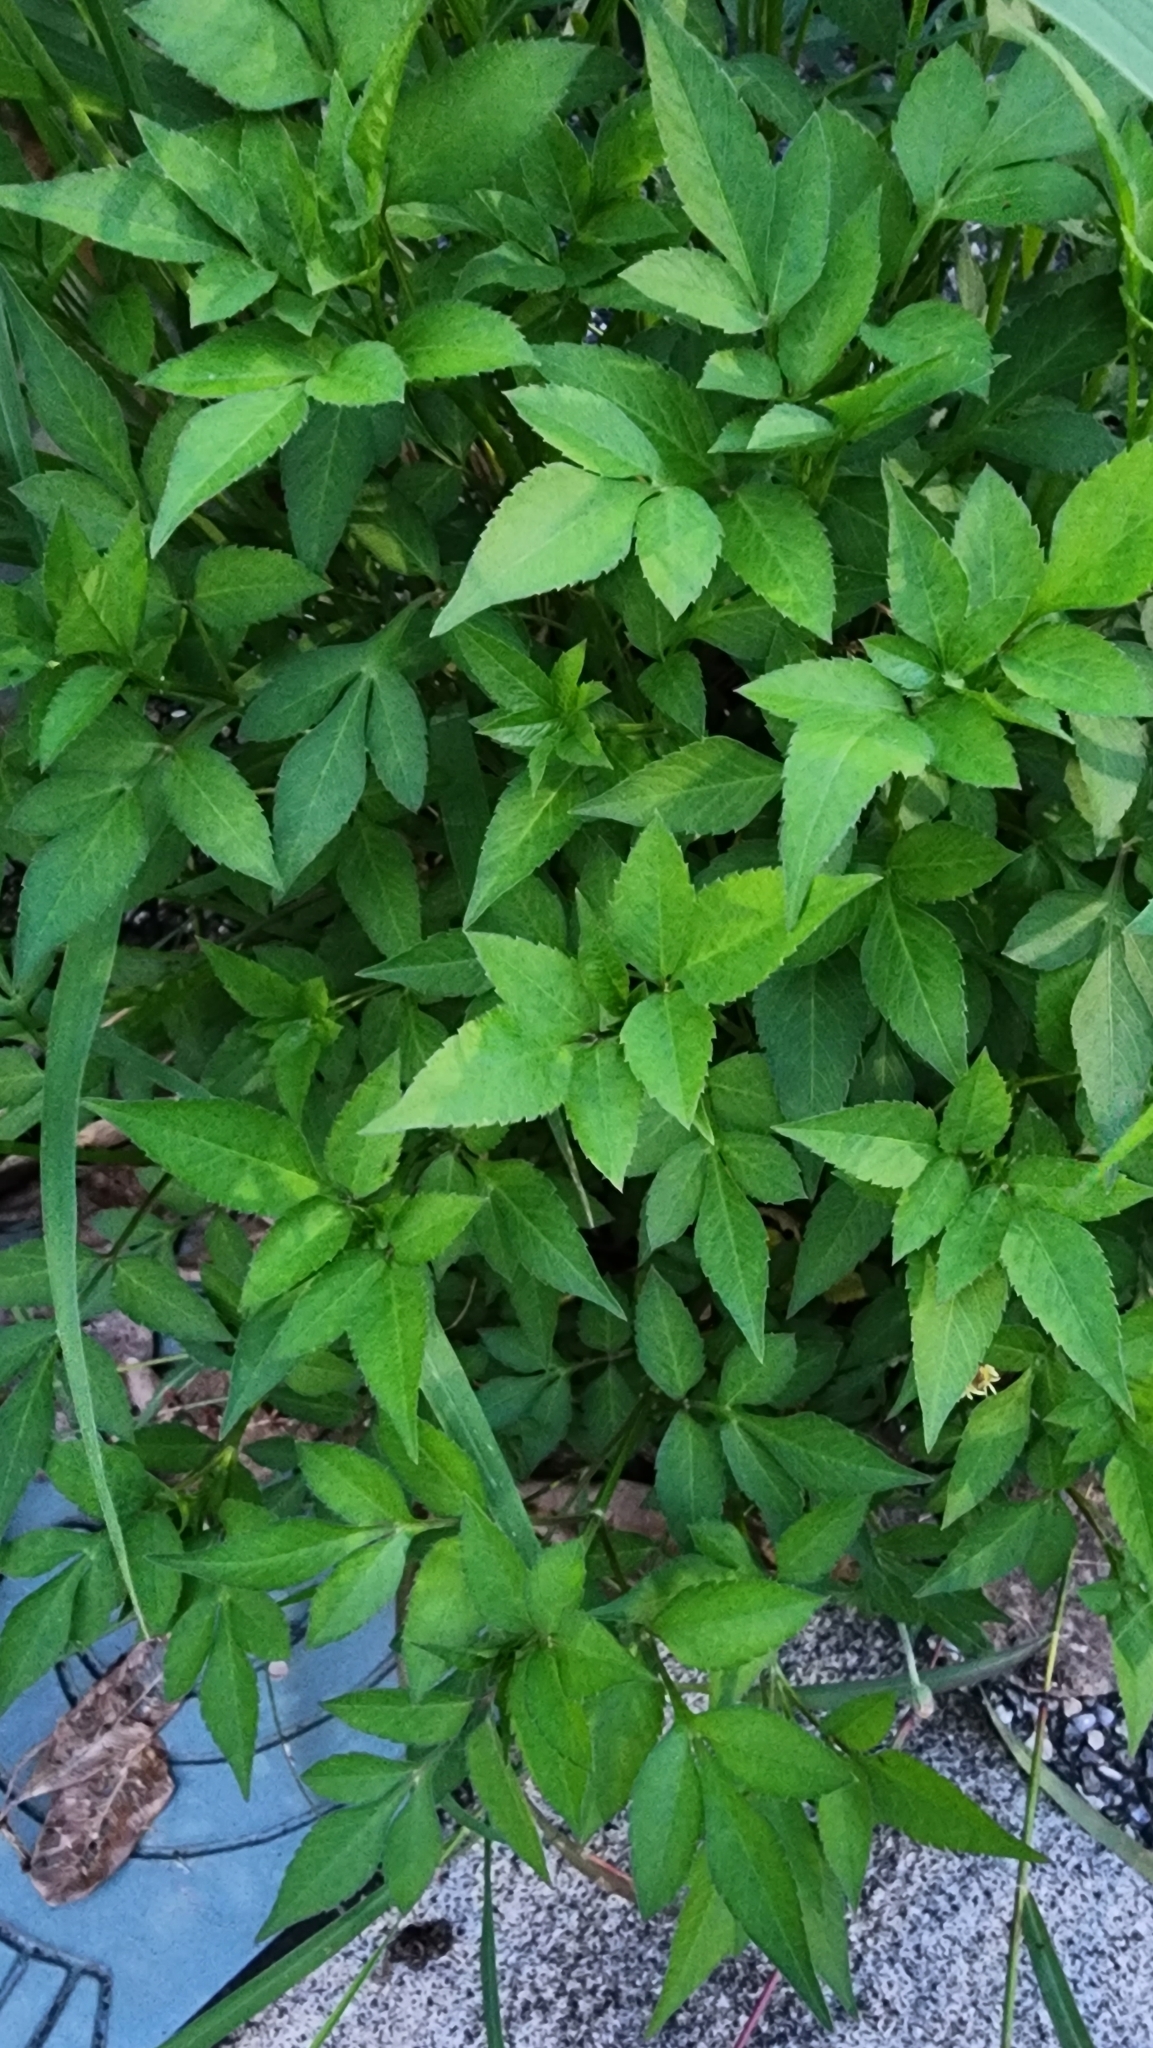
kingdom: Plantae
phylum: Tracheophyta
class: Magnoliopsida
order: Asterales
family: Asteraceae
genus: Bidens
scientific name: Bidens alba
